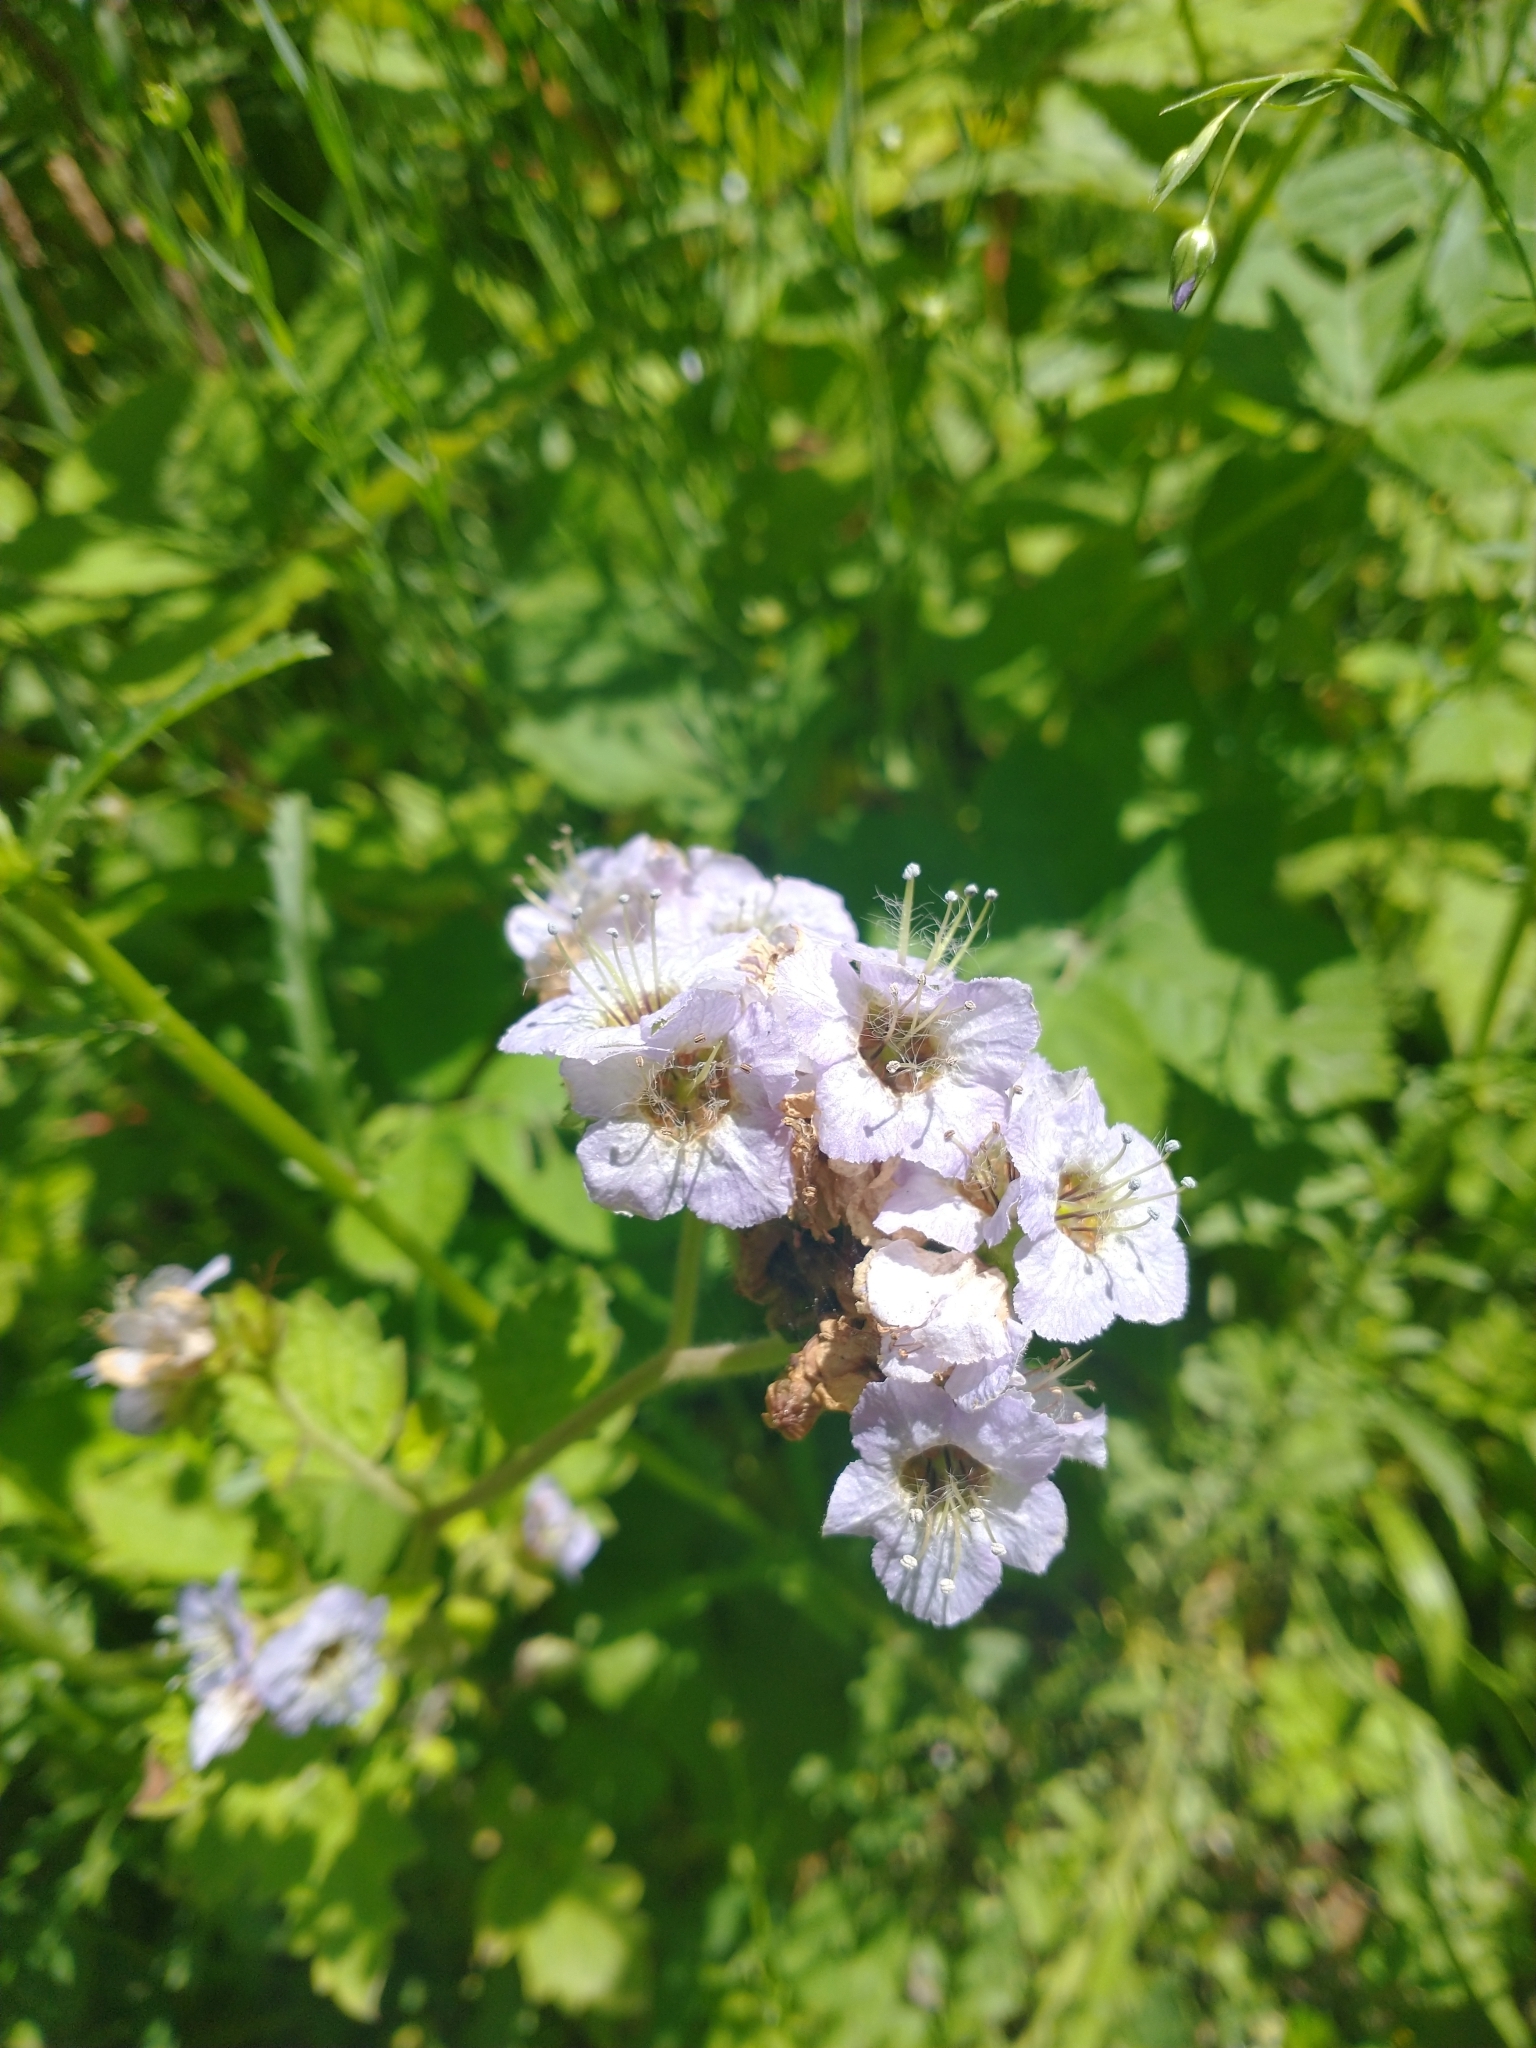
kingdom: Plantae
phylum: Tracheophyta
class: Magnoliopsida
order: Boraginales
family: Hydrophyllaceae
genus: Phacelia
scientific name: Phacelia bolanderi
